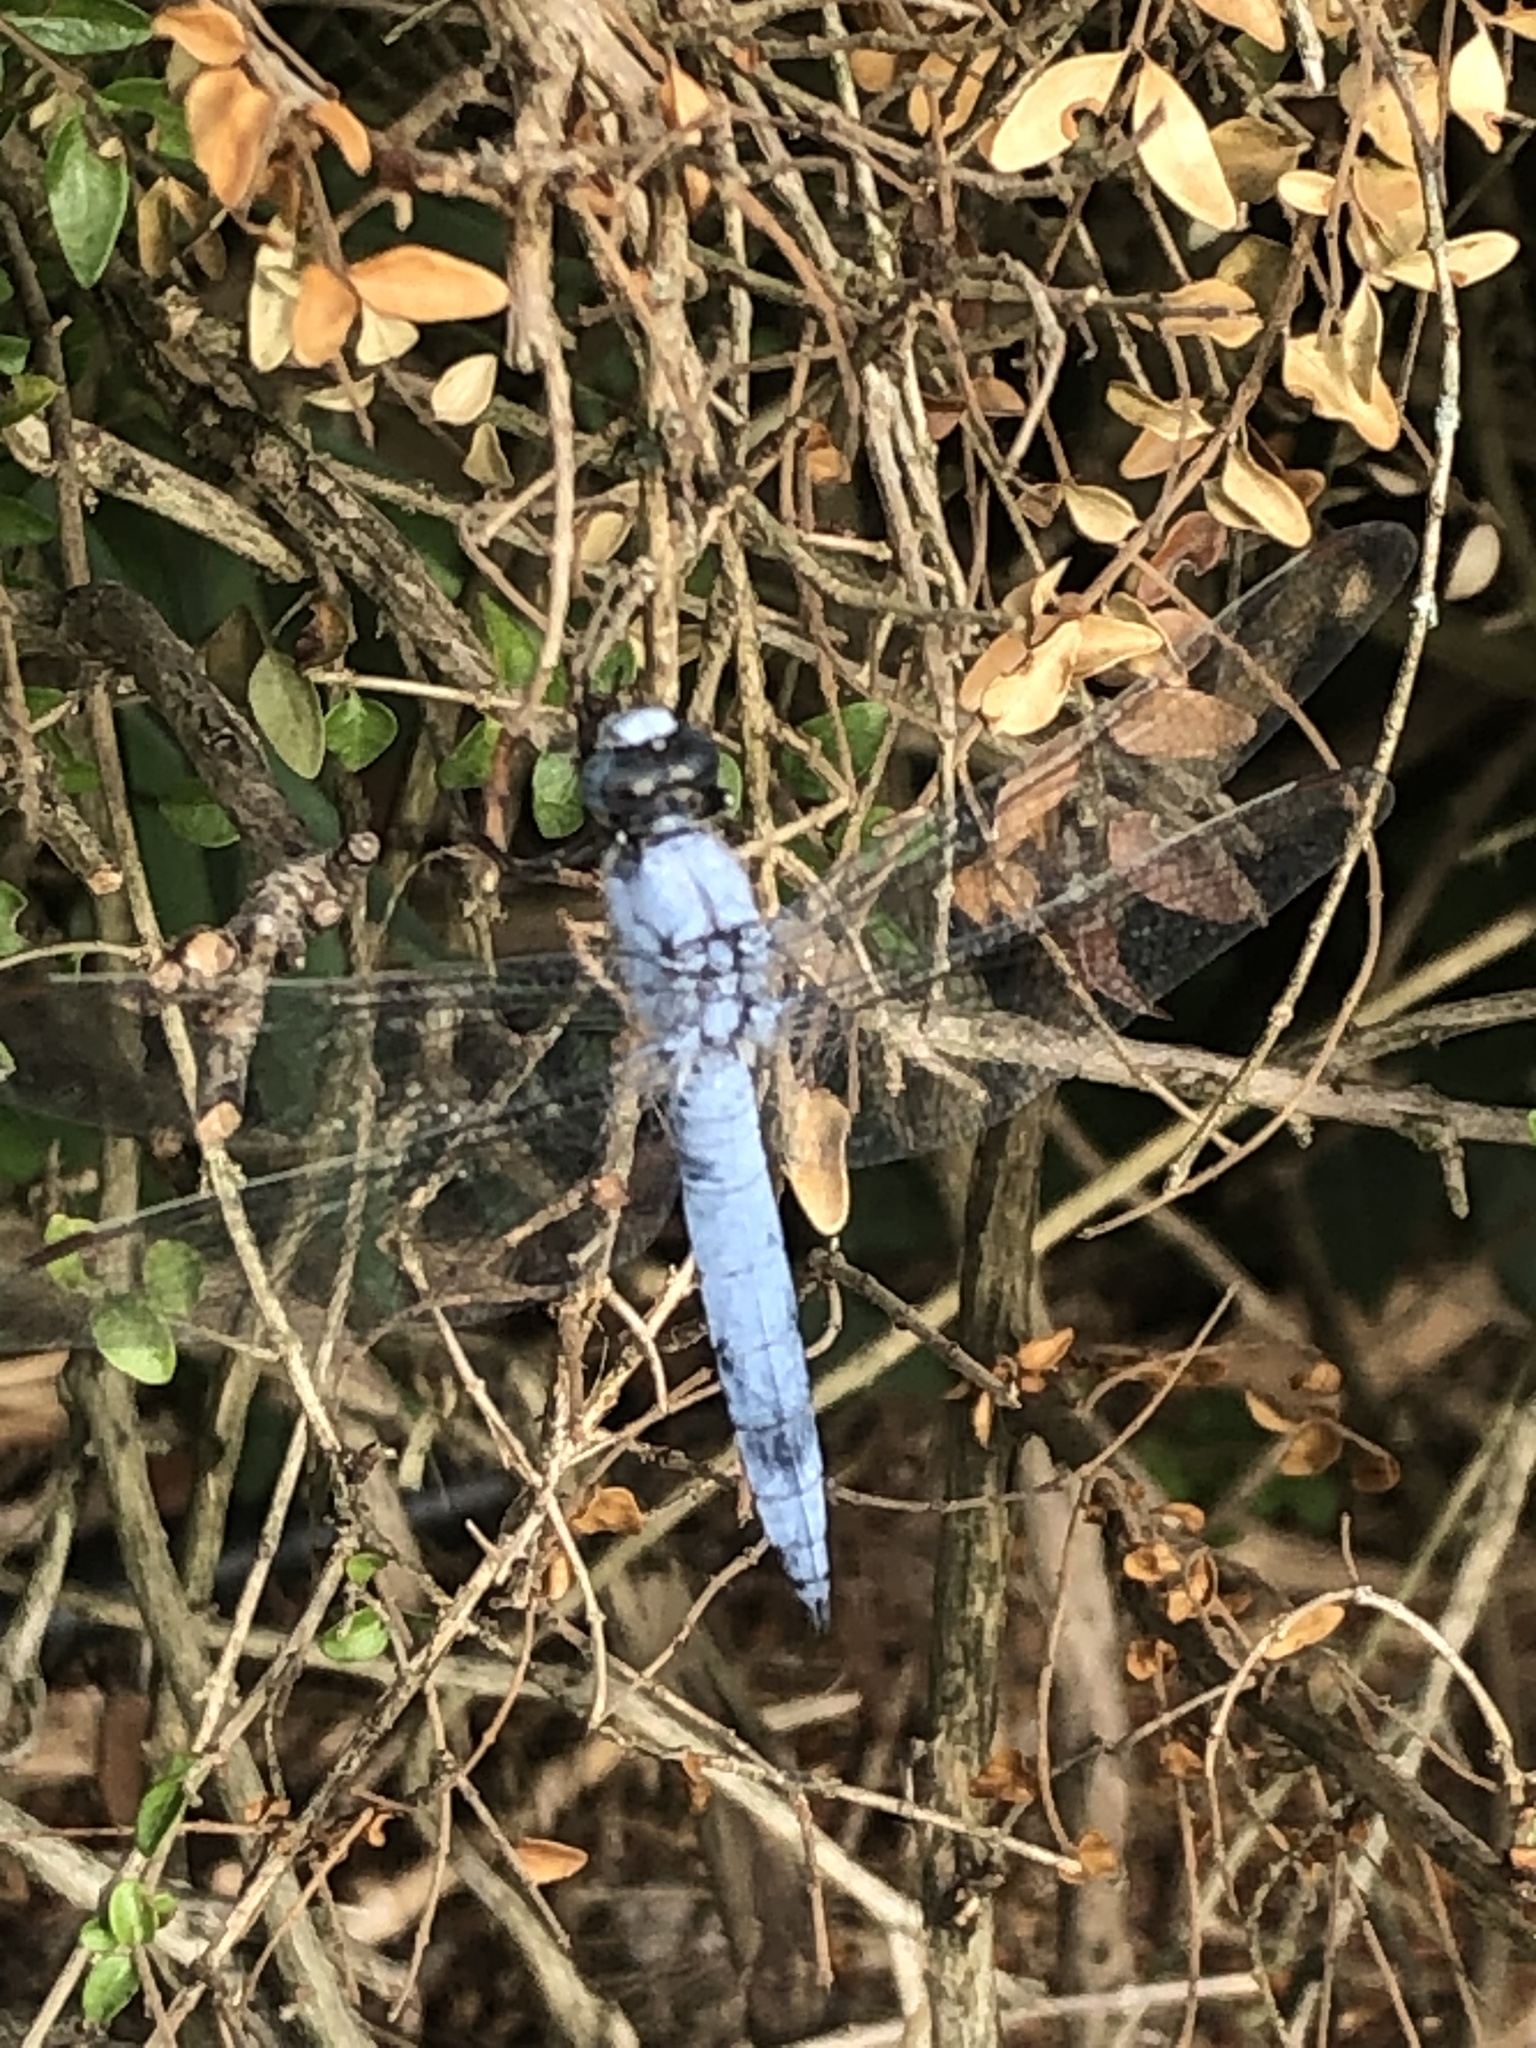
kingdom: Animalia
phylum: Arthropoda
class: Insecta
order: Odonata
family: Libellulidae
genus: Orthetrum
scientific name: Orthetrum brunneum
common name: Southern skimmer
